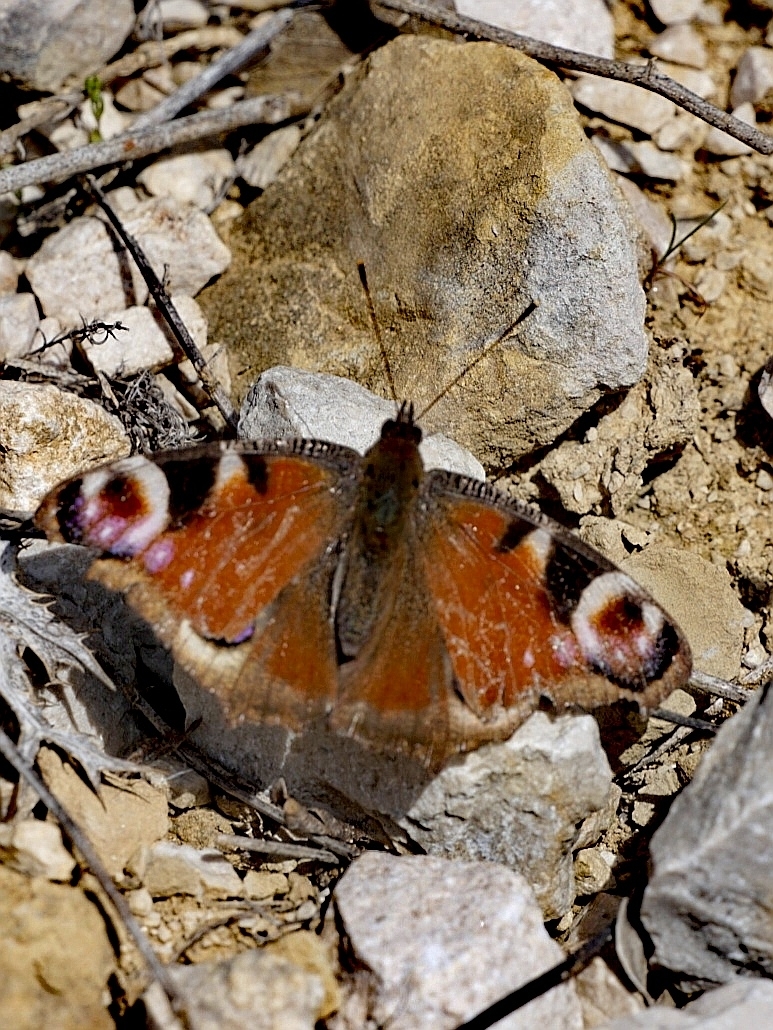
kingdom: Animalia
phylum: Arthropoda
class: Insecta
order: Lepidoptera
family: Nymphalidae
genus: Aglais
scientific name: Aglais io
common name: Peacock
